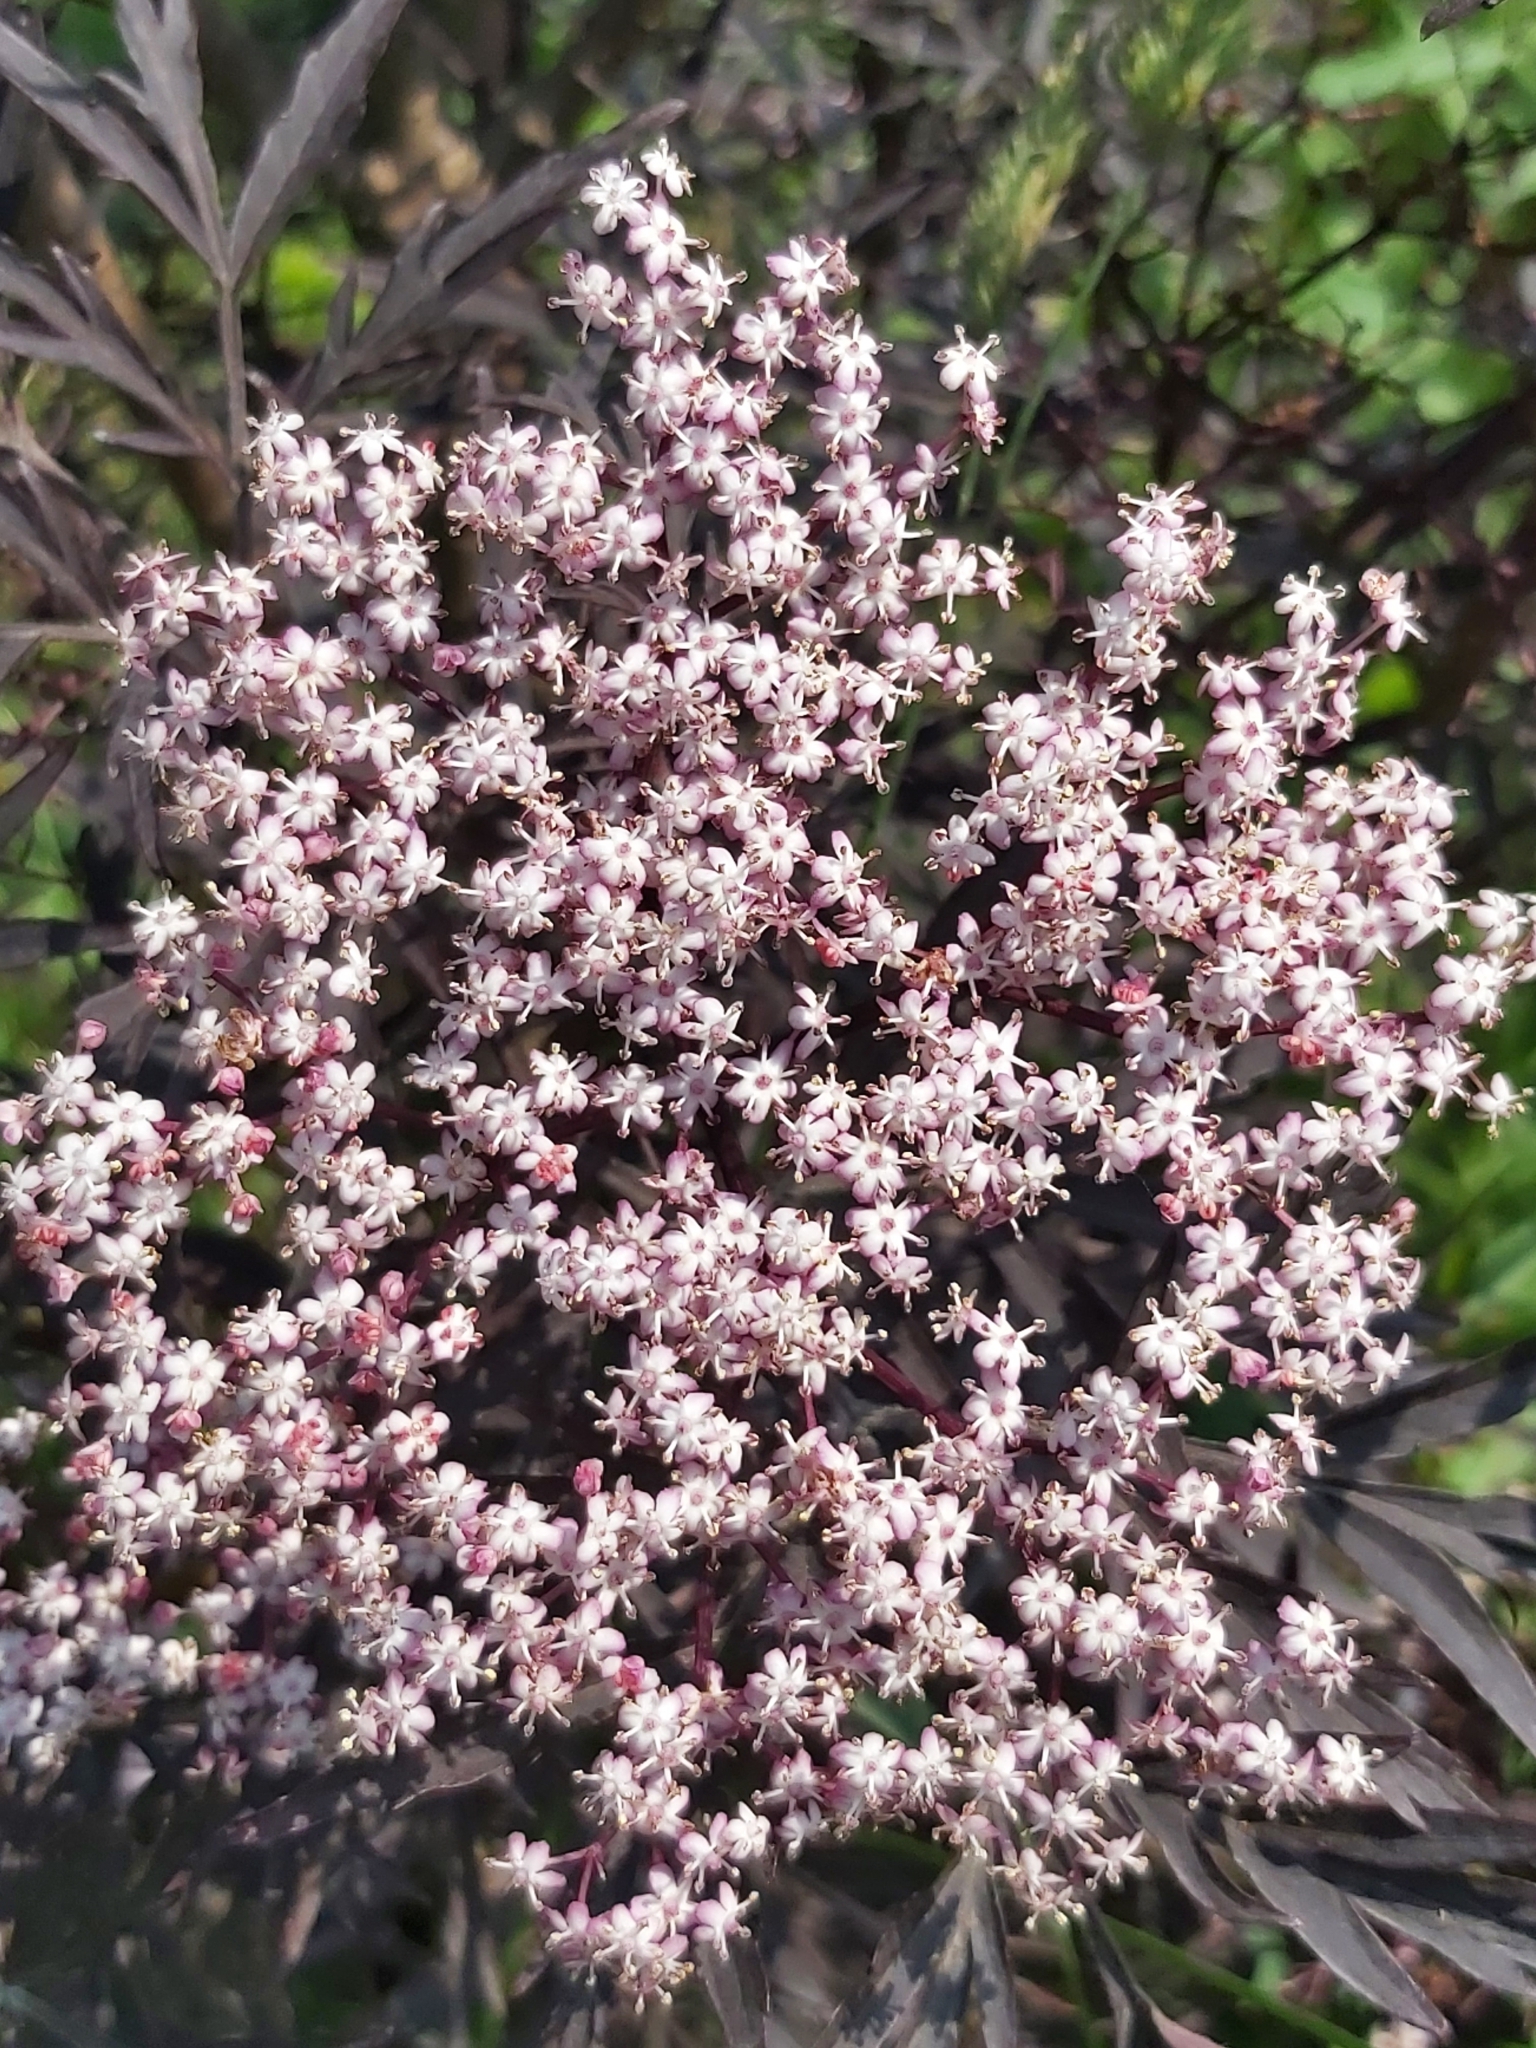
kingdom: Plantae
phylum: Tracheophyta
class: Magnoliopsida
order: Dipsacales
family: Viburnaceae
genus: Sambucus
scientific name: Sambucus nigra
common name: Elder
